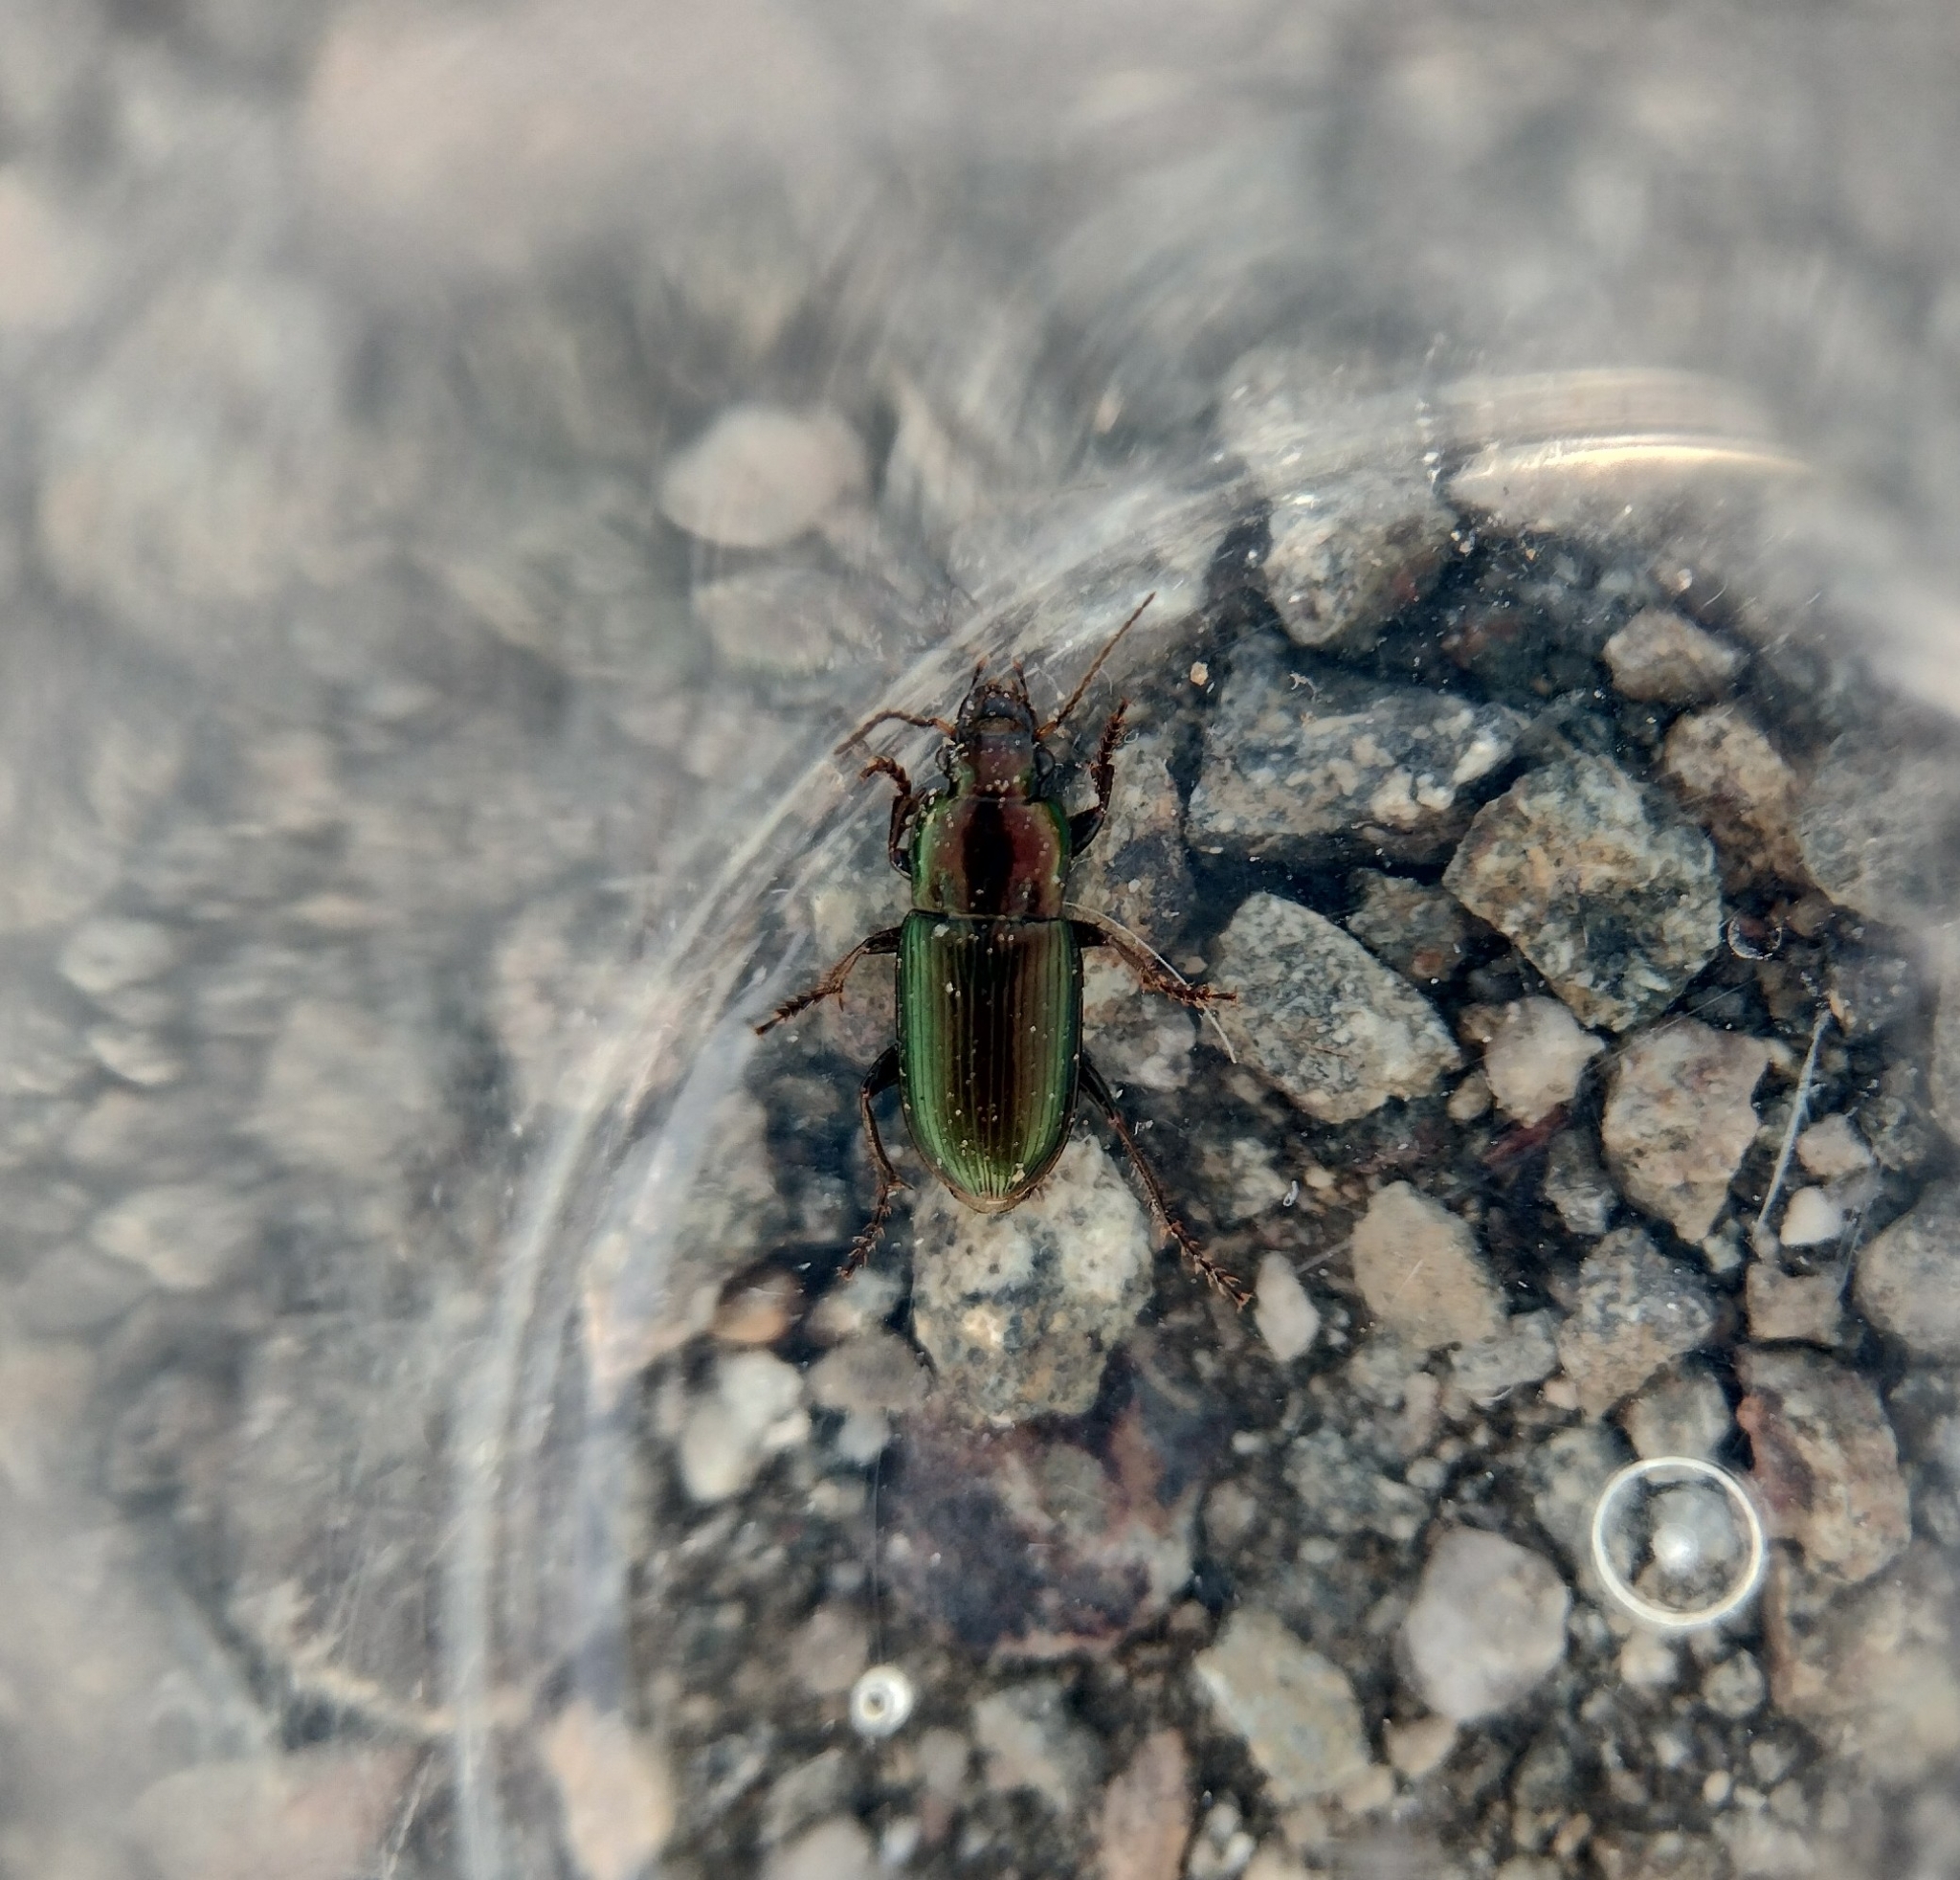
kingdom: Animalia
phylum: Arthropoda
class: Insecta
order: Coleoptera
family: Carabidae
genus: Harpalus
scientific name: Harpalus distinguendus
